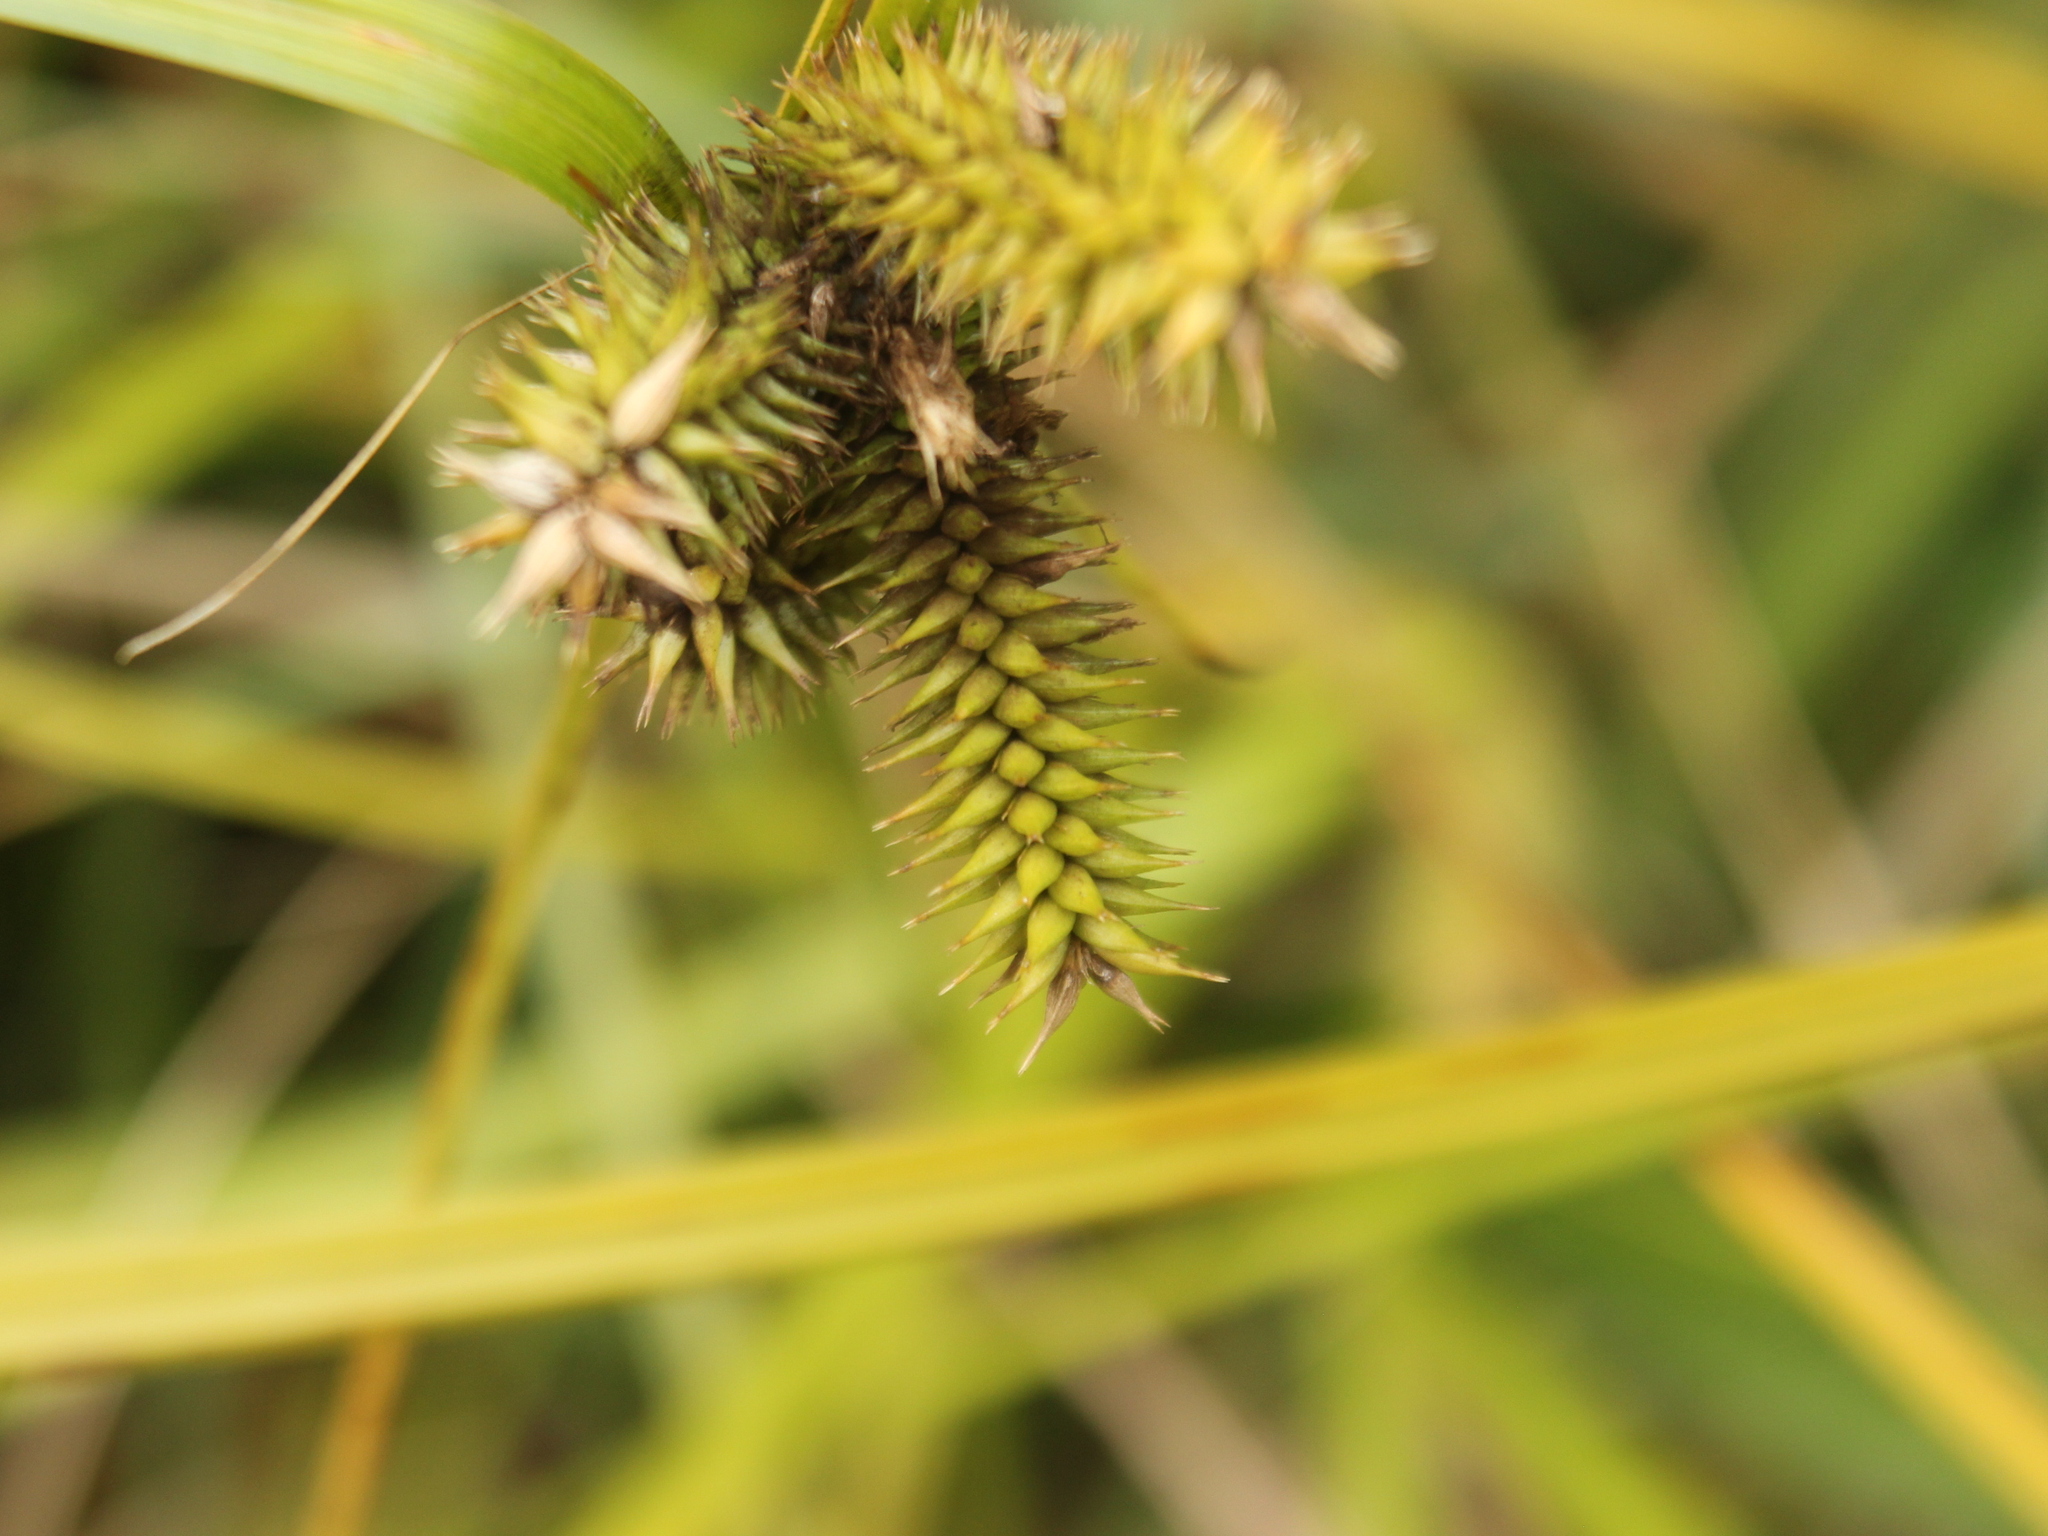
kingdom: Plantae
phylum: Tracheophyta
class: Liliopsida
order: Poales
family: Cyperaceae
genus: Carex
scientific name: Carex maorica
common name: Maori sedge
